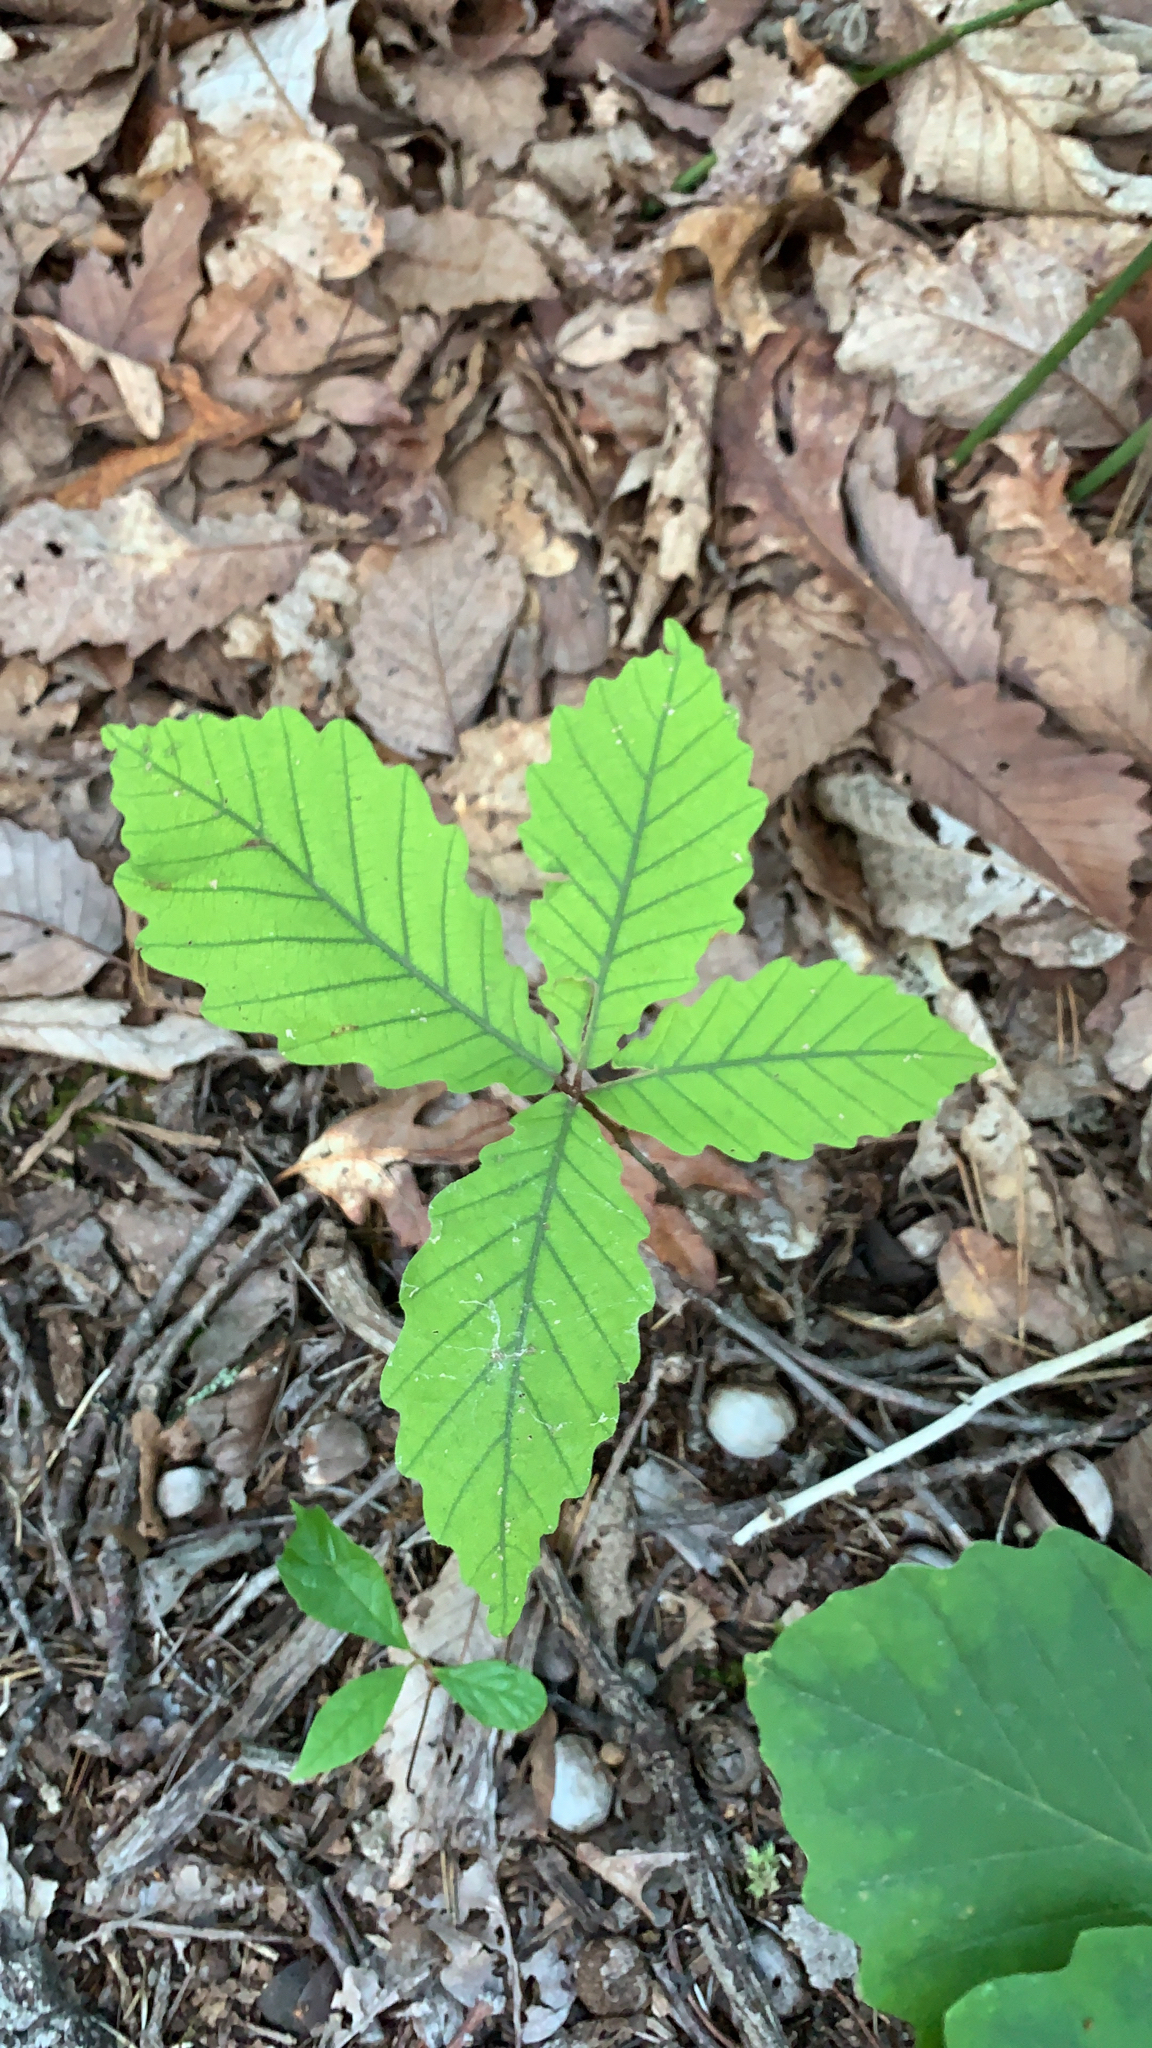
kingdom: Plantae
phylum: Tracheophyta
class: Magnoliopsida
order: Fagales
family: Fagaceae
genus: Quercus
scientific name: Quercus montana
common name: Chestnut oak
